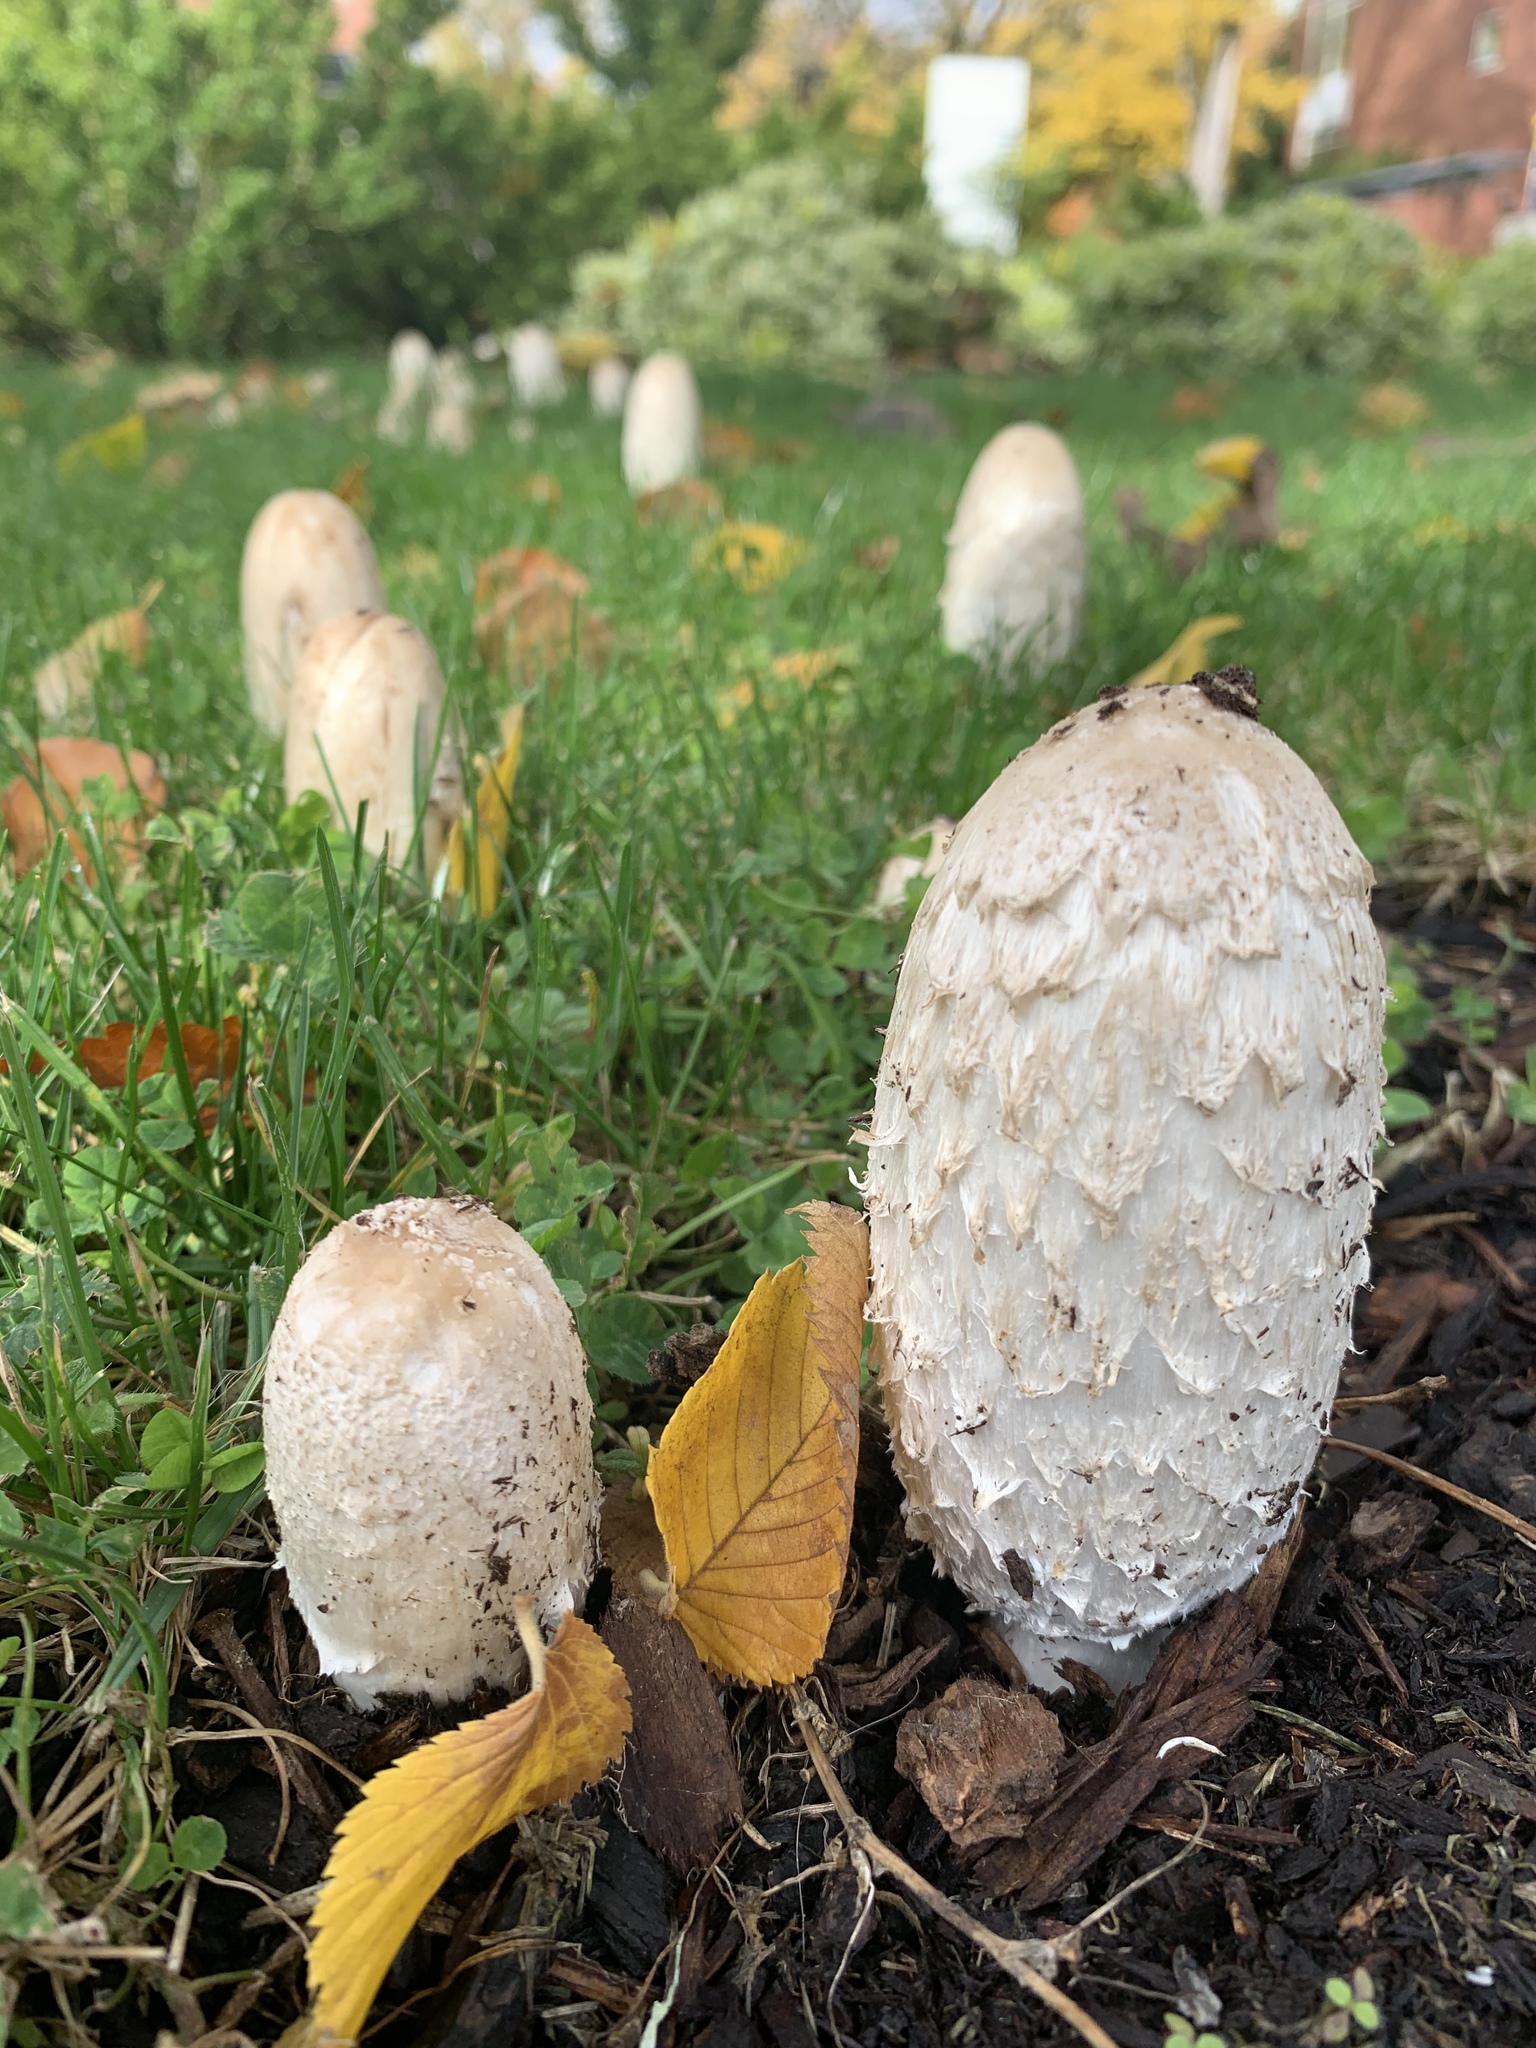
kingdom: Fungi
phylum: Basidiomycota
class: Agaricomycetes
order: Agaricales
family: Agaricaceae
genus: Coprinus
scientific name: Coprinus comatus
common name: Lawyer's wig
